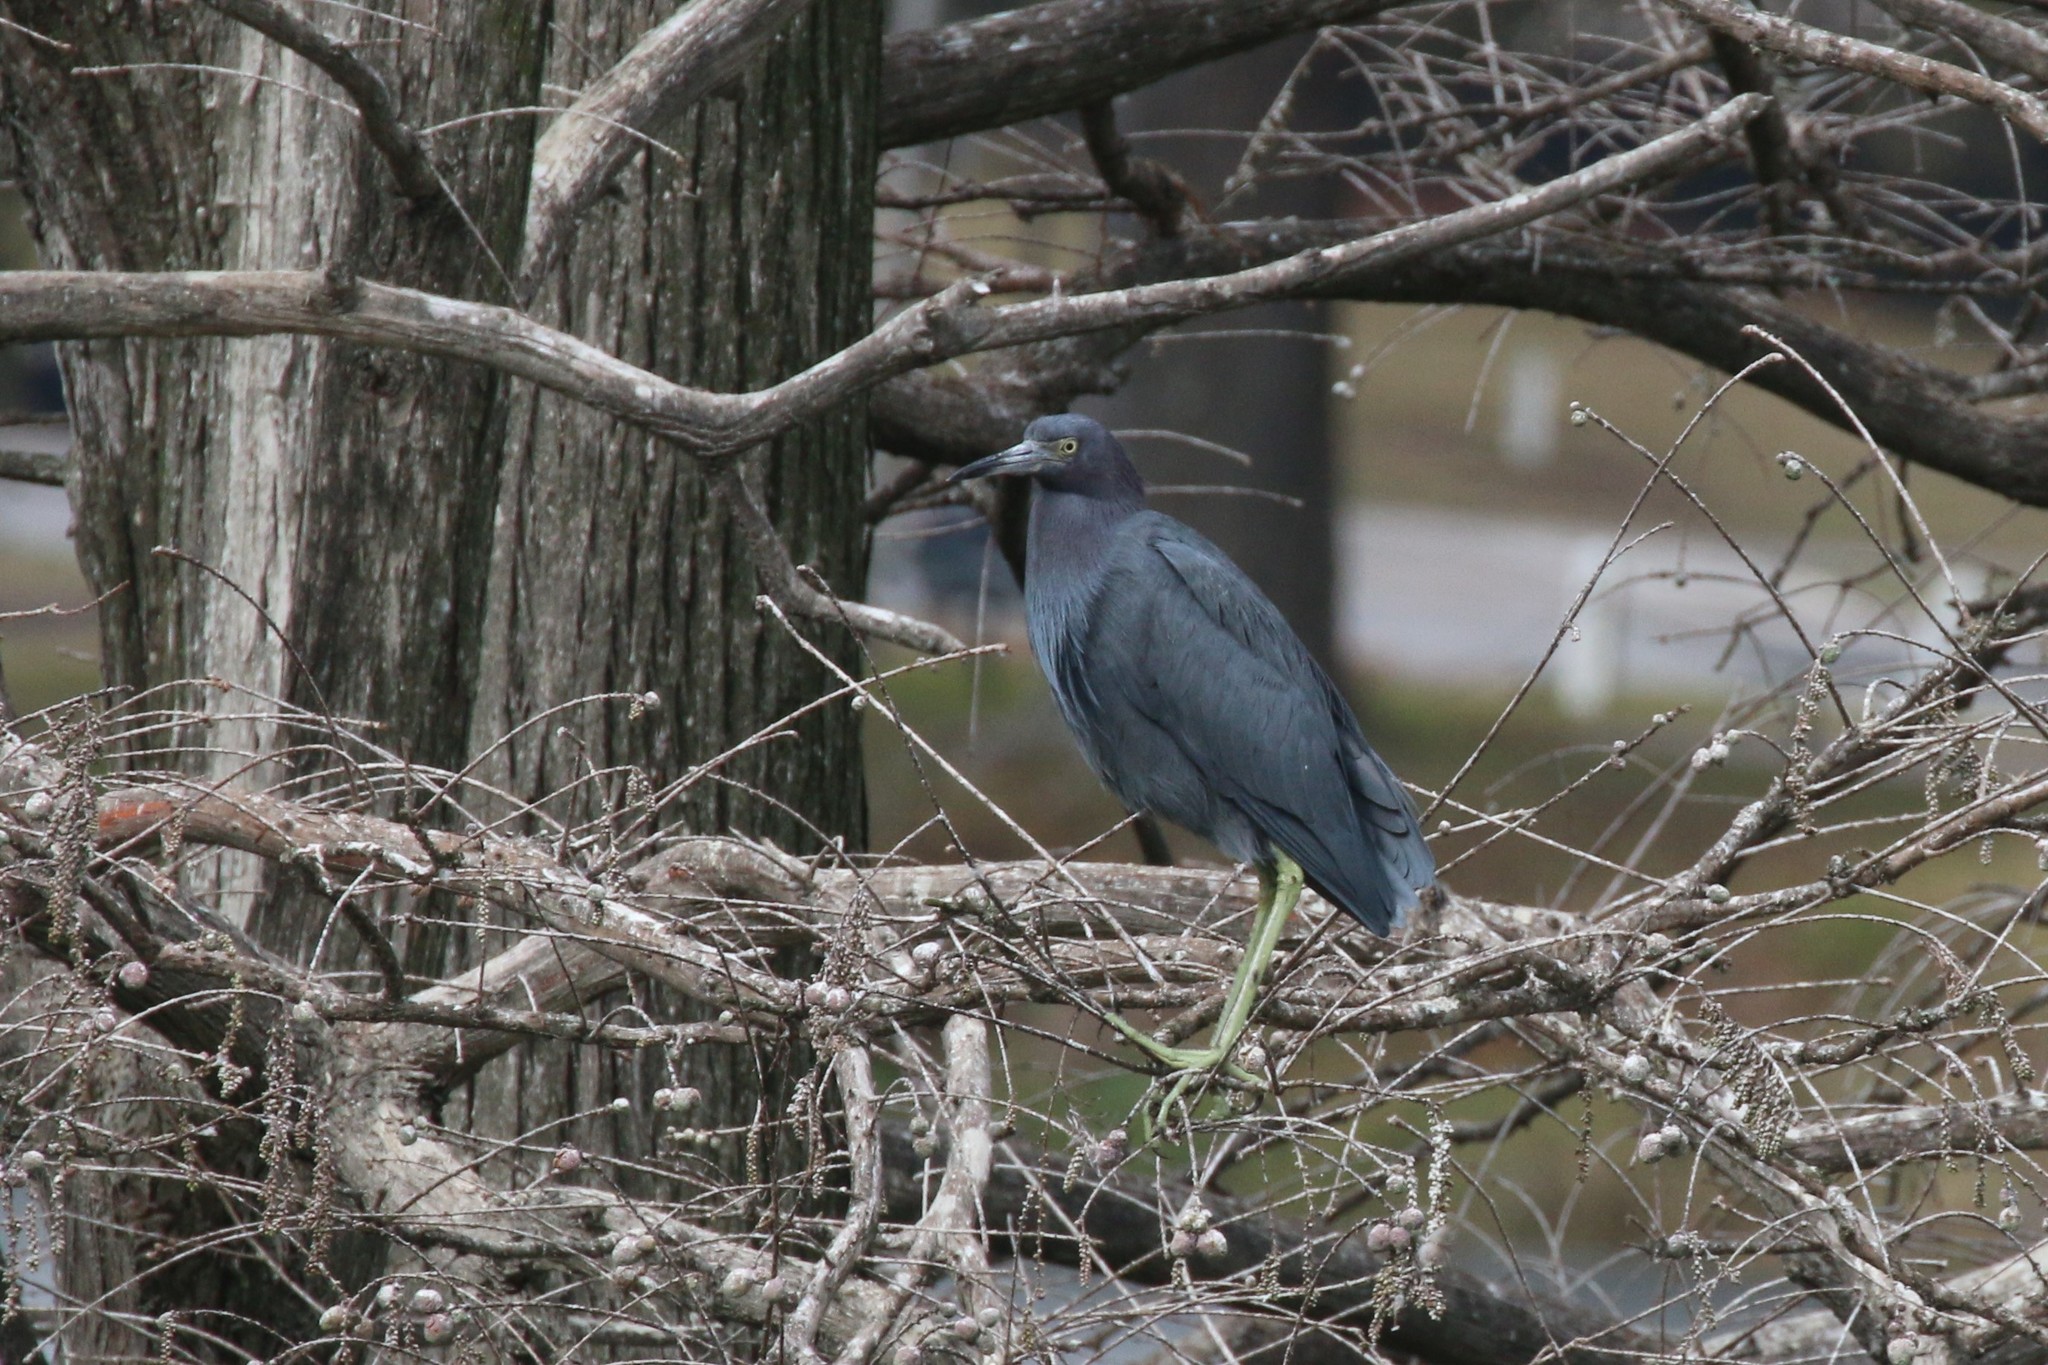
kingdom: Animalia
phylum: Chordata
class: Aves
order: Pelecaniformes
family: Ardeidae
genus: Egretta
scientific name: Egretta caerulea
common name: Little blue heron
